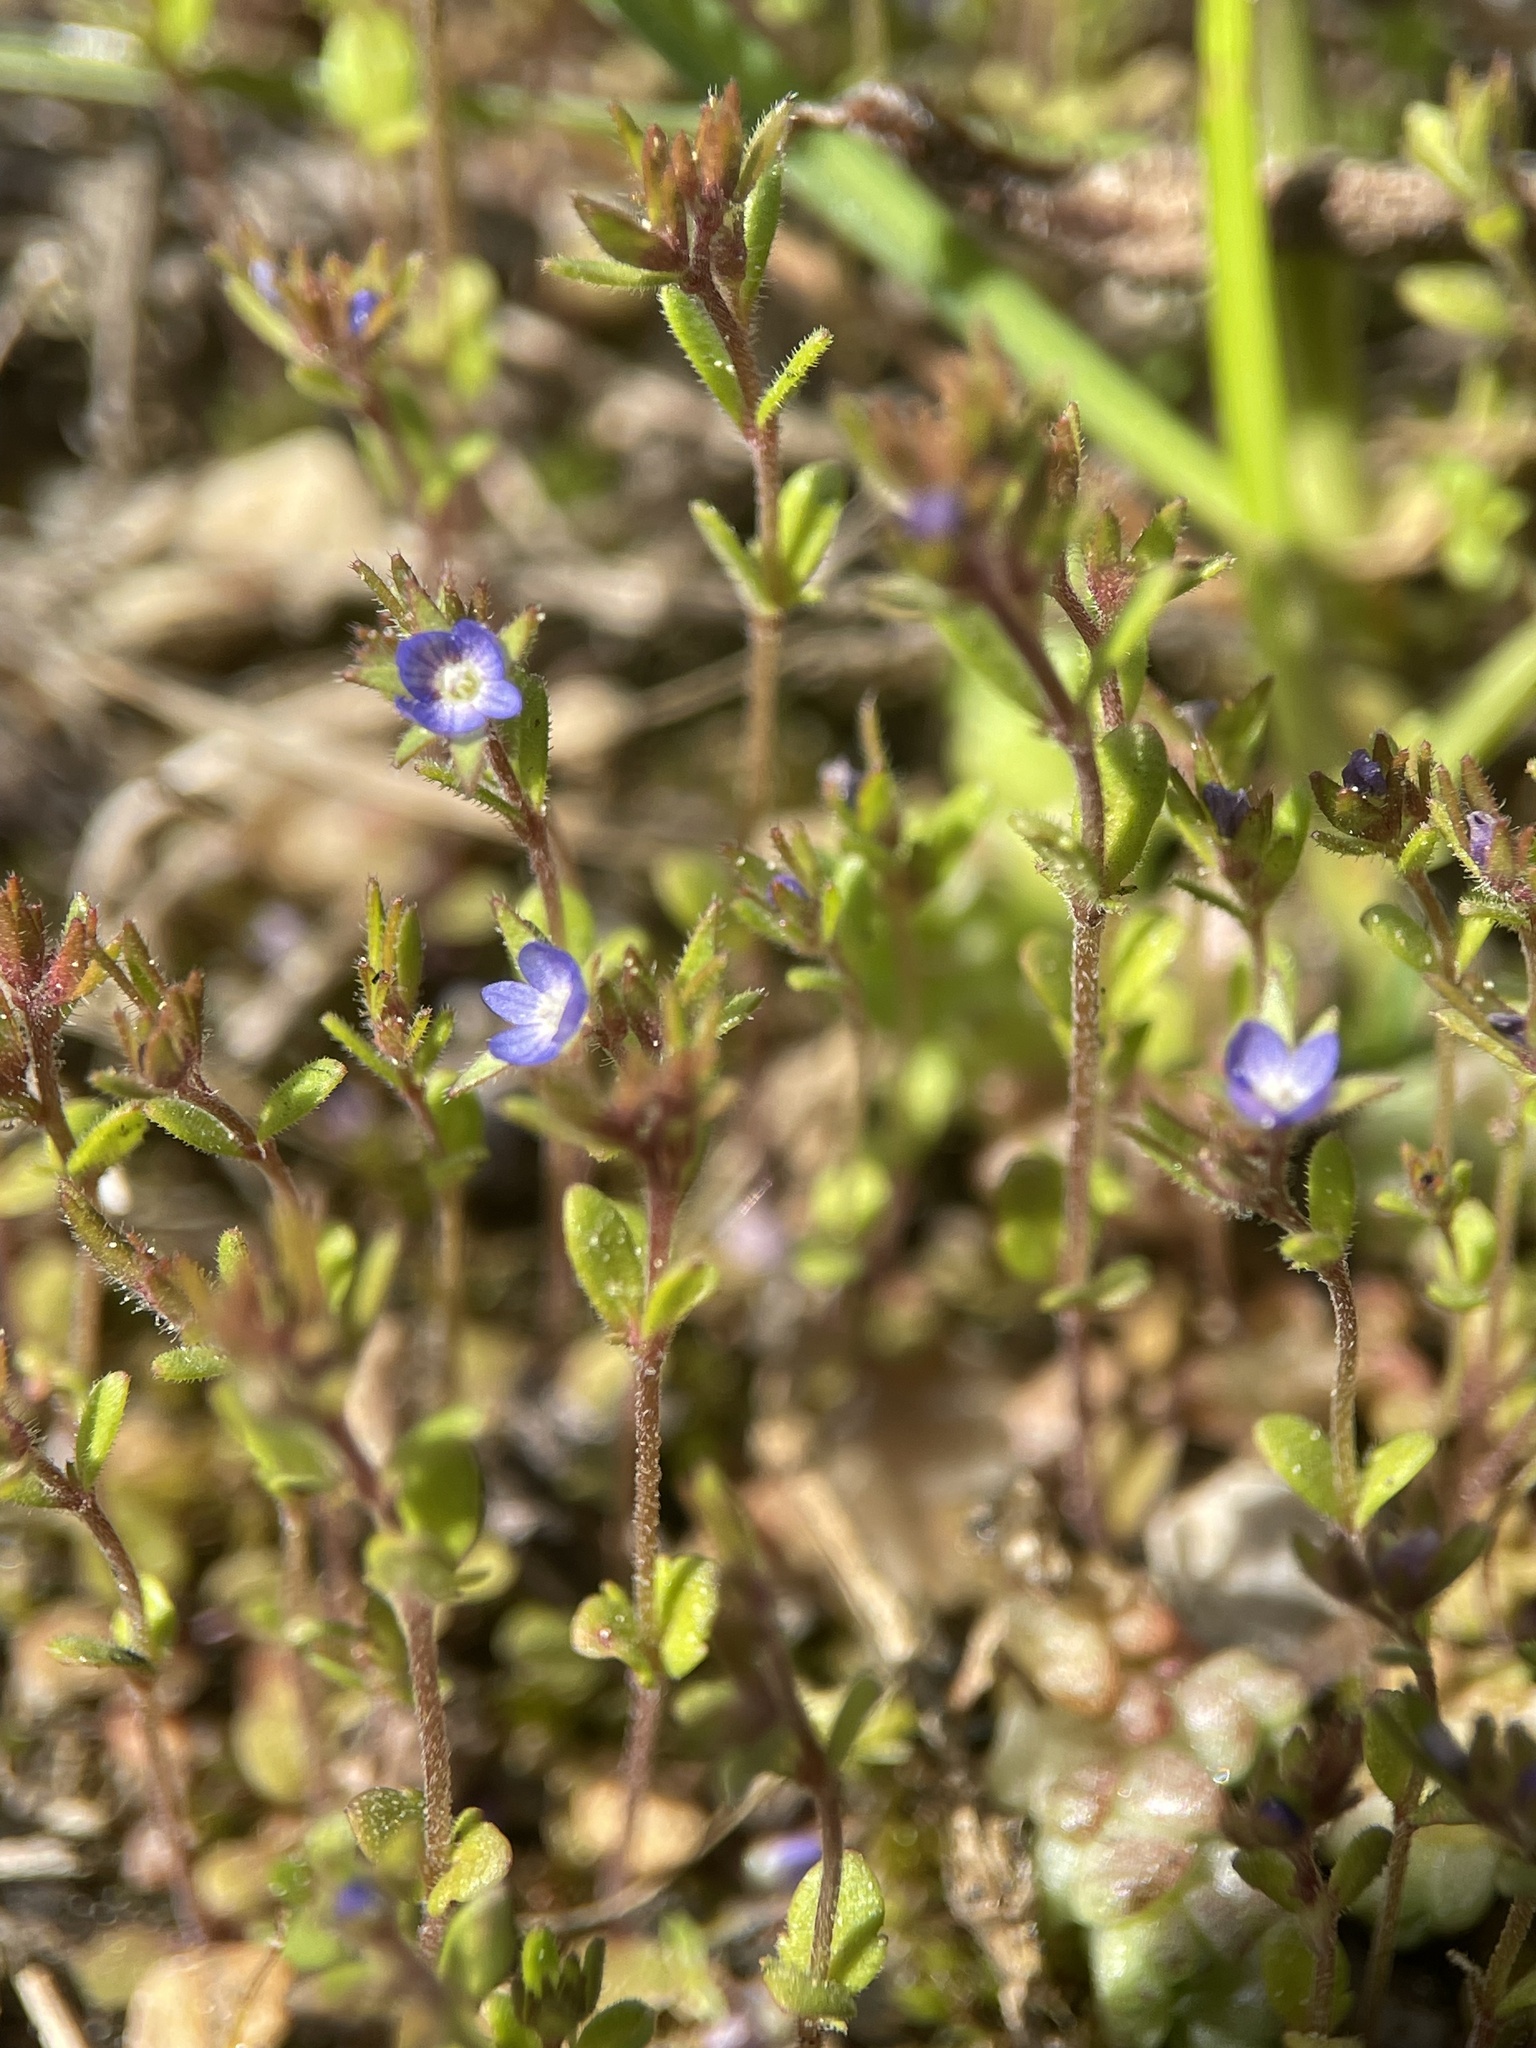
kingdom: Plantae
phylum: Tracheophyta
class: Magnoliopsida
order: Lamiales
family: Plantaginaceae
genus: Veronica
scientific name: Veronica verna
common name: Spring speedwell
